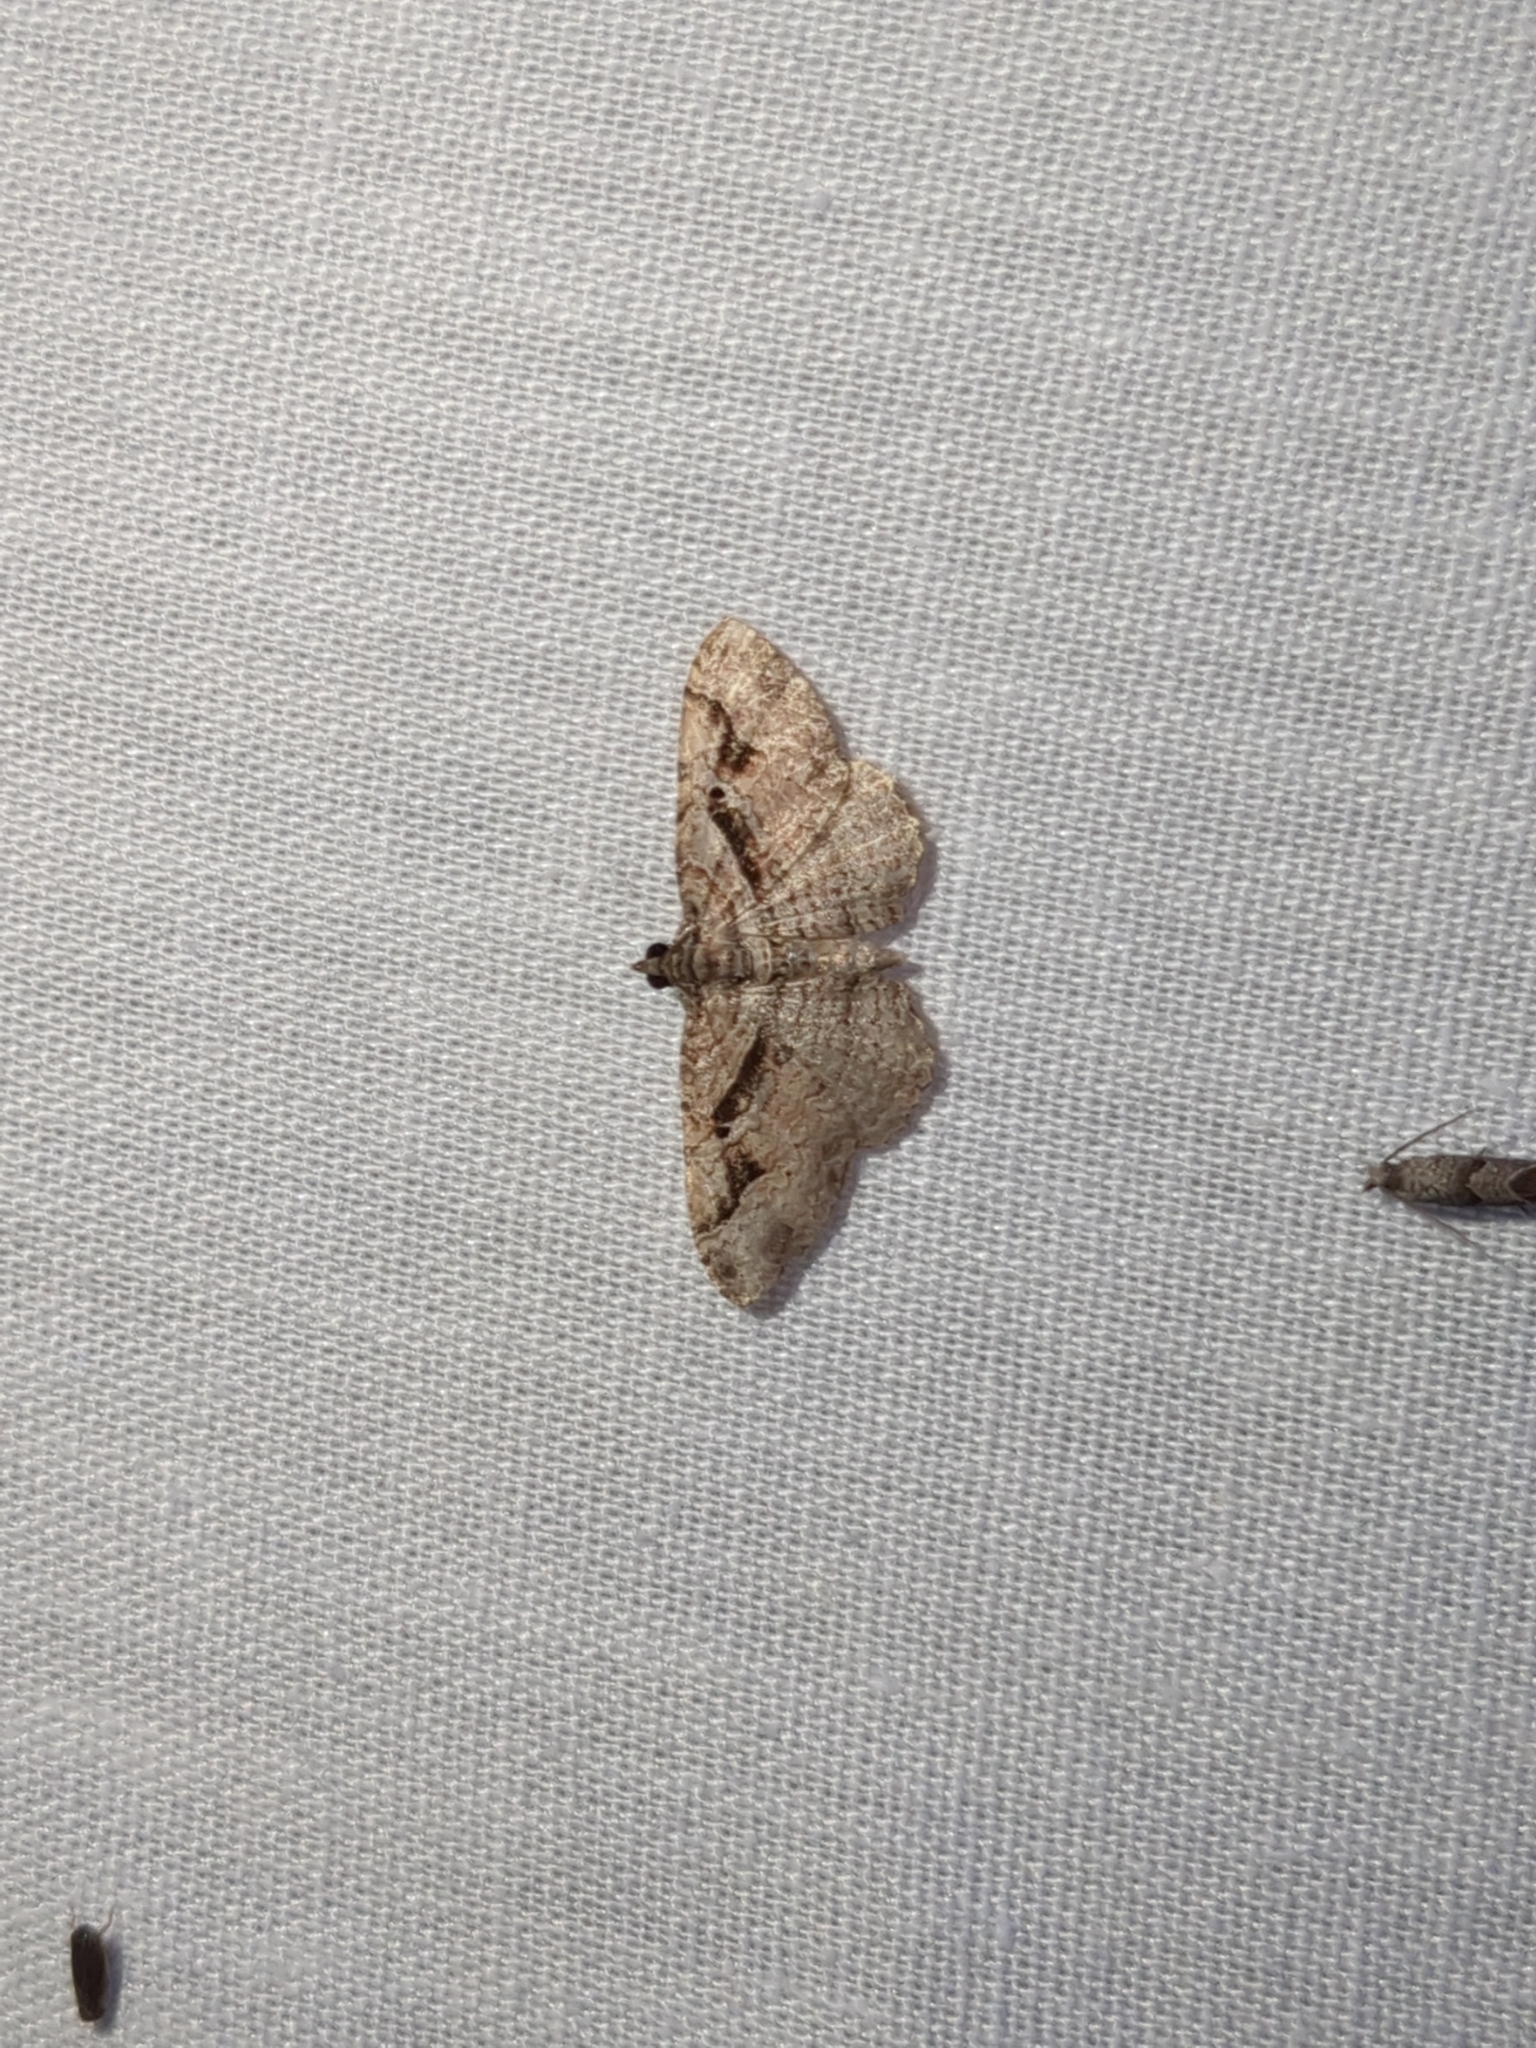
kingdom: Animalia
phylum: Arthropoda
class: Insecta
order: Lepidoptera
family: Geometridae
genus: Costaconvexa
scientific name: Costaconvexa centrostrigaria
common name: Bent-line carpet
